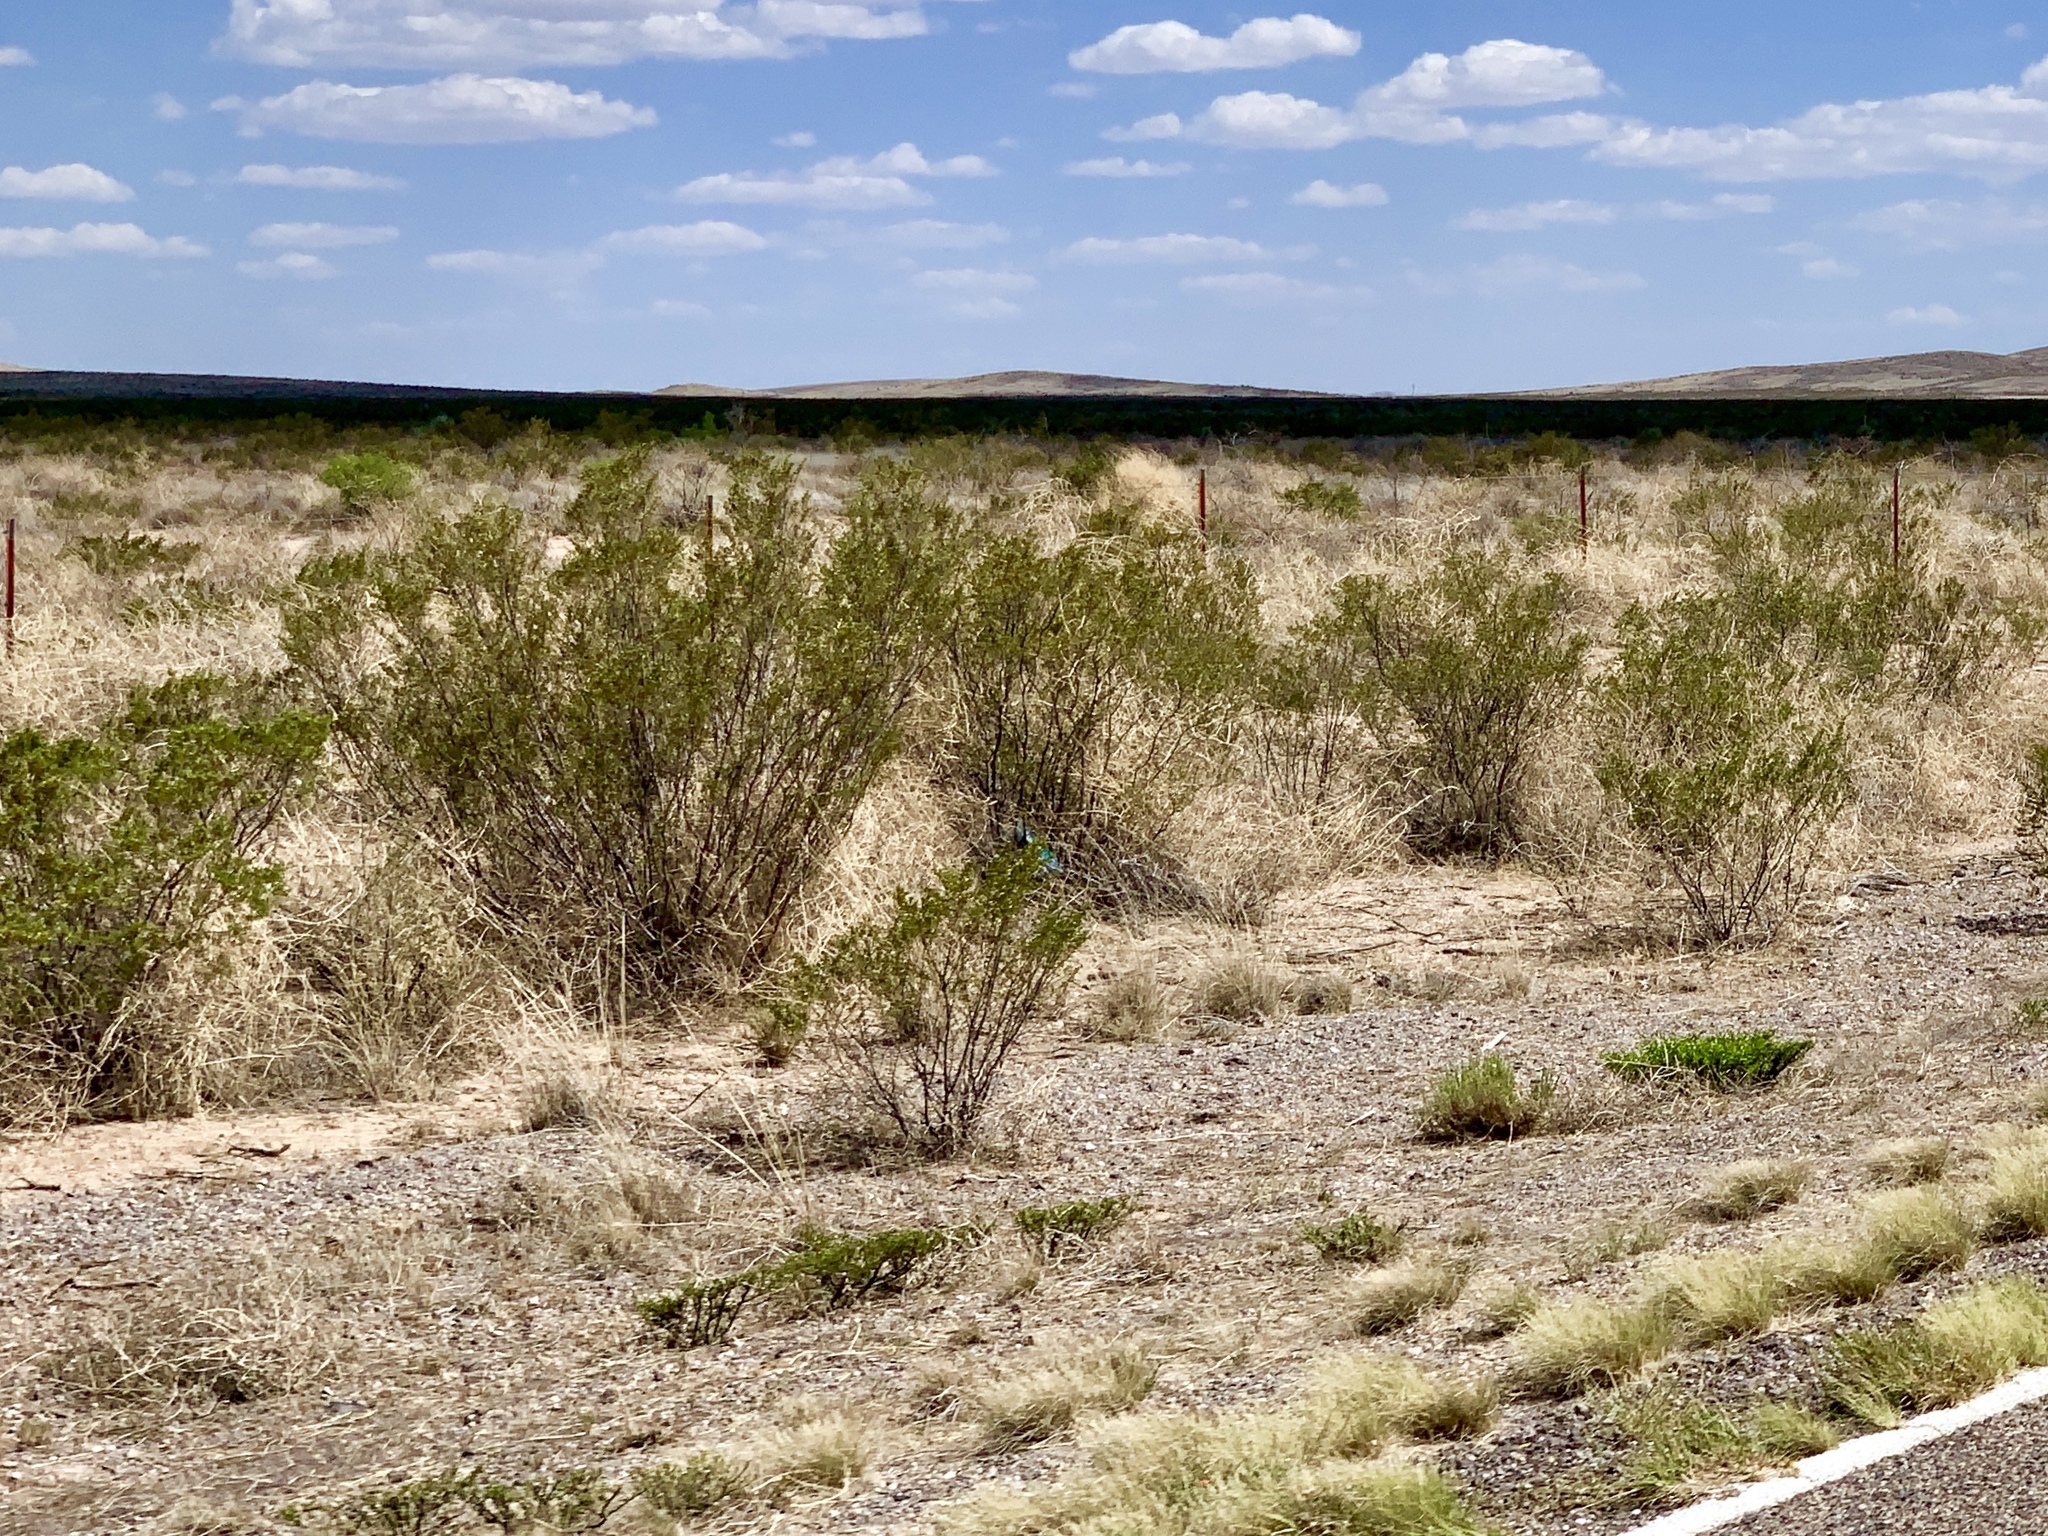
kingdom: Plantae
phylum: Tracheophyta
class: Magnoliopsida
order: Zygophyllales
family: Zygophyllaceae
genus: Larrea
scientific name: Larrea tridentata
